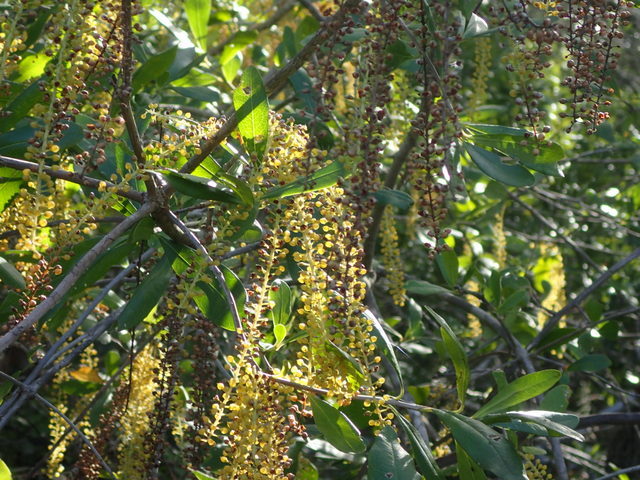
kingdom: Plantae
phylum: Tracheophyta
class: Magnoliopsida
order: Ericales
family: Cyrillaceae
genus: Cyrilla
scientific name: Cyrilla racemiflora
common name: Black titi
